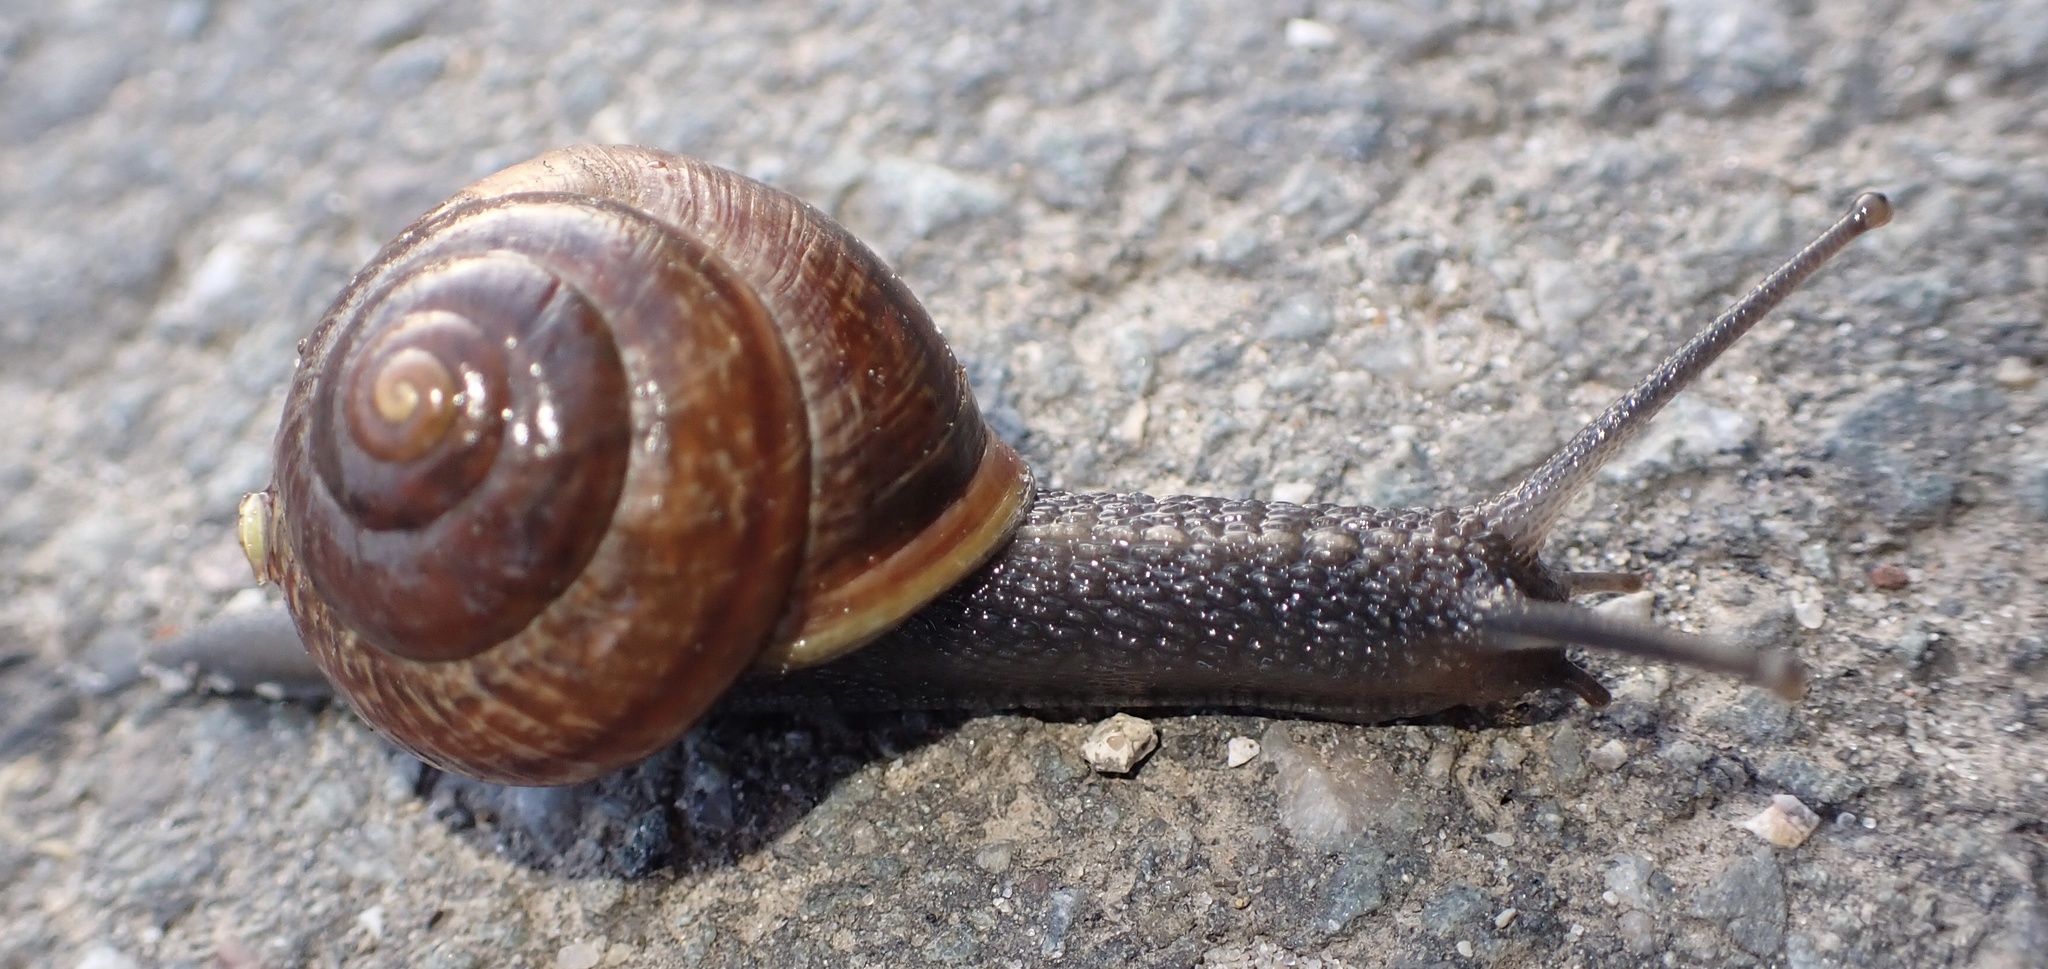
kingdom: Animalia
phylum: Mollusca
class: Gastropoda
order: Stylommatophora
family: Helicidae
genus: Arianta
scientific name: Arianta arbustorum
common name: Copse snail
